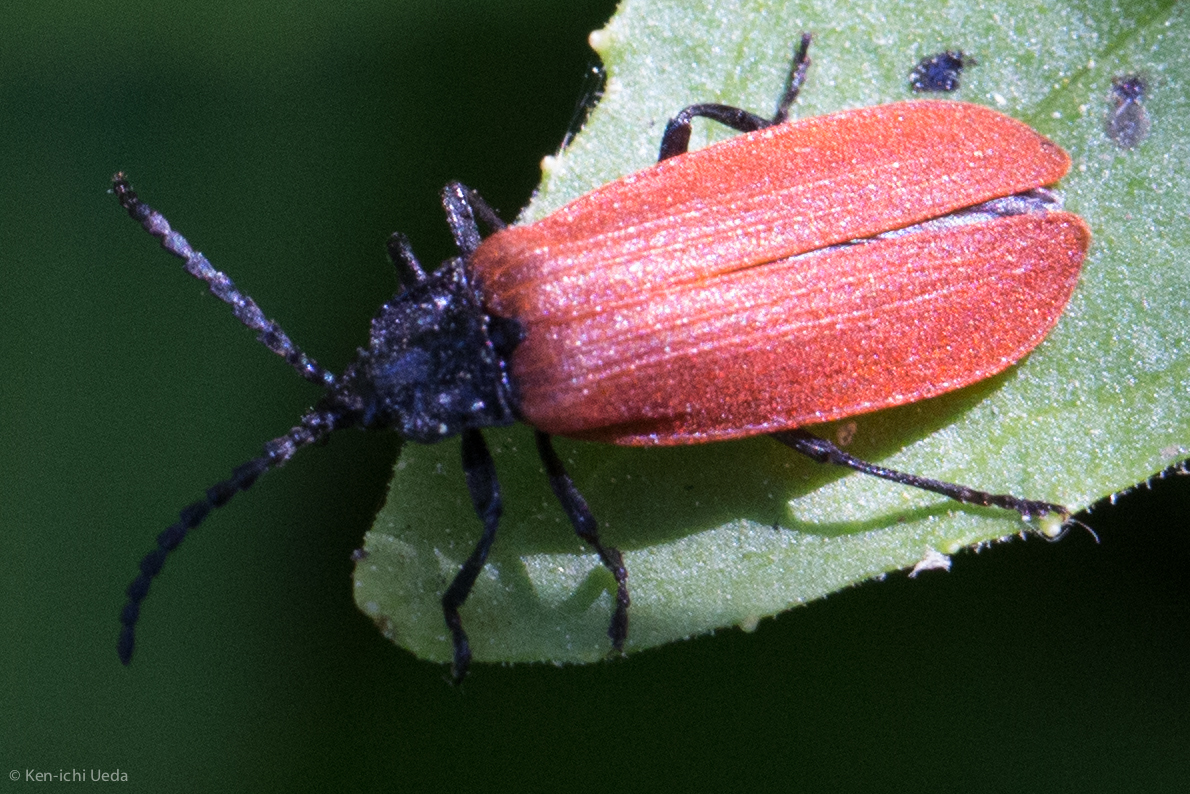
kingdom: Animalia
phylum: Arthropoda
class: Insecta
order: Coleoptera
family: Lycidae
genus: Macrolygistopterus
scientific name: Macrolygistopterus
